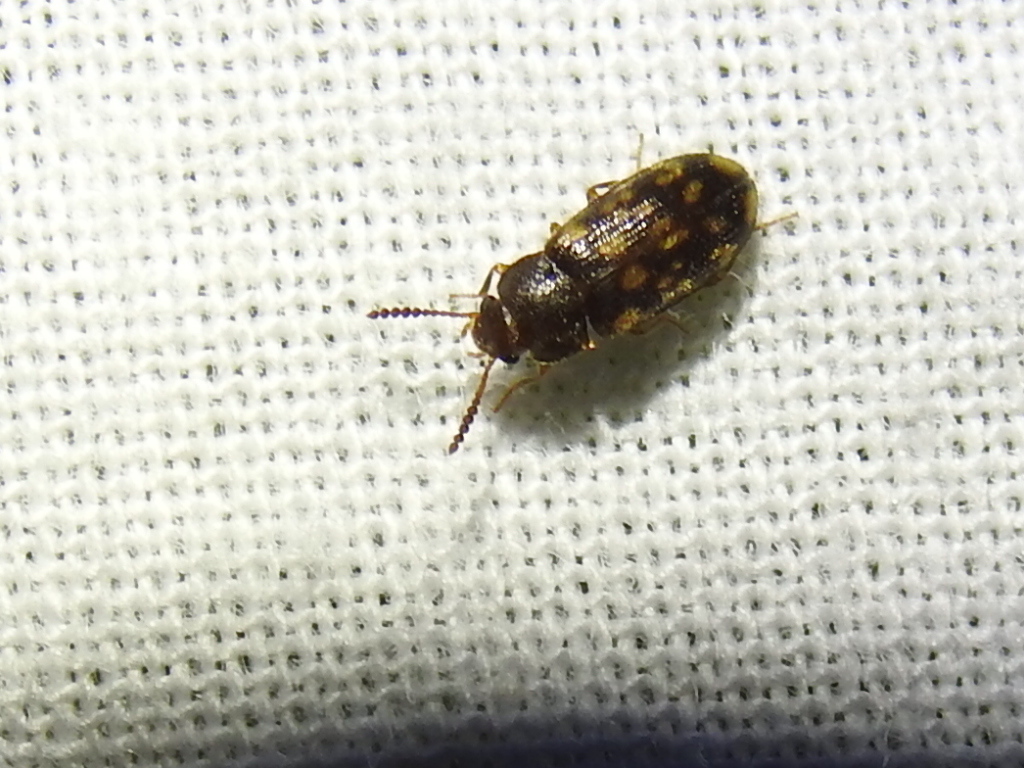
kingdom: Animalia
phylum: Arthropoda
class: Insecta
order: Coleoptera
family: Mycetophagidae
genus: Mycetophagus
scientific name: Mycetophagus pluripunctatus
